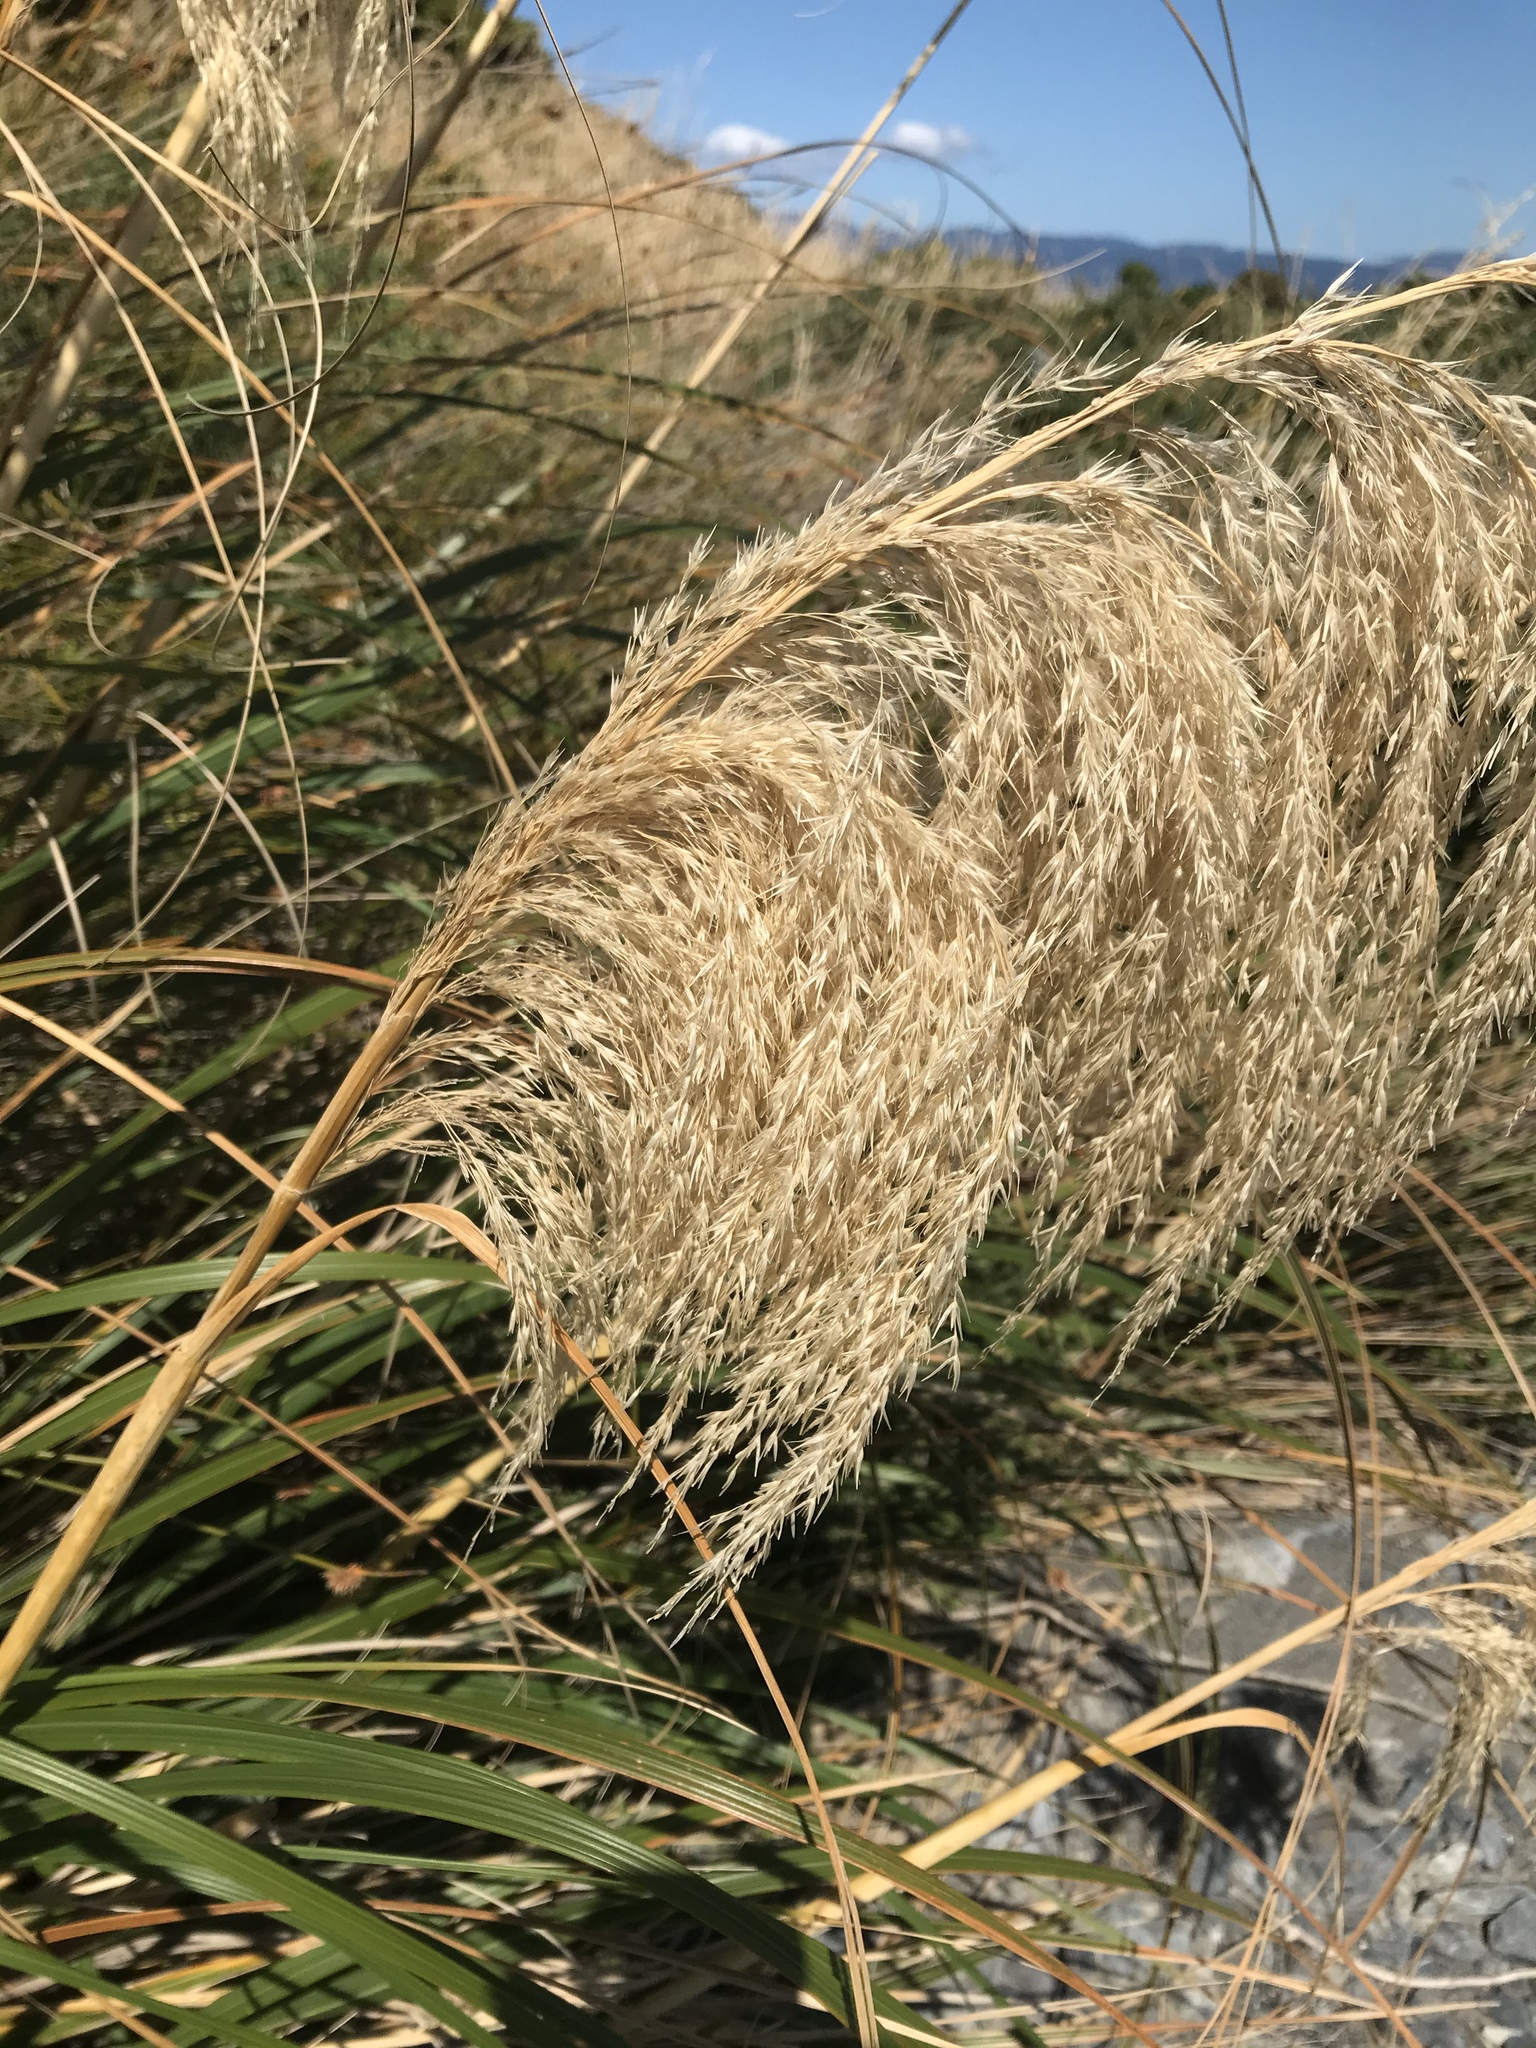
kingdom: Plantae
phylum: Tracheophyta
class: Liliopsida
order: Poales
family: Poaceae
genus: Austroderia
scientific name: Austroderia fulvida
